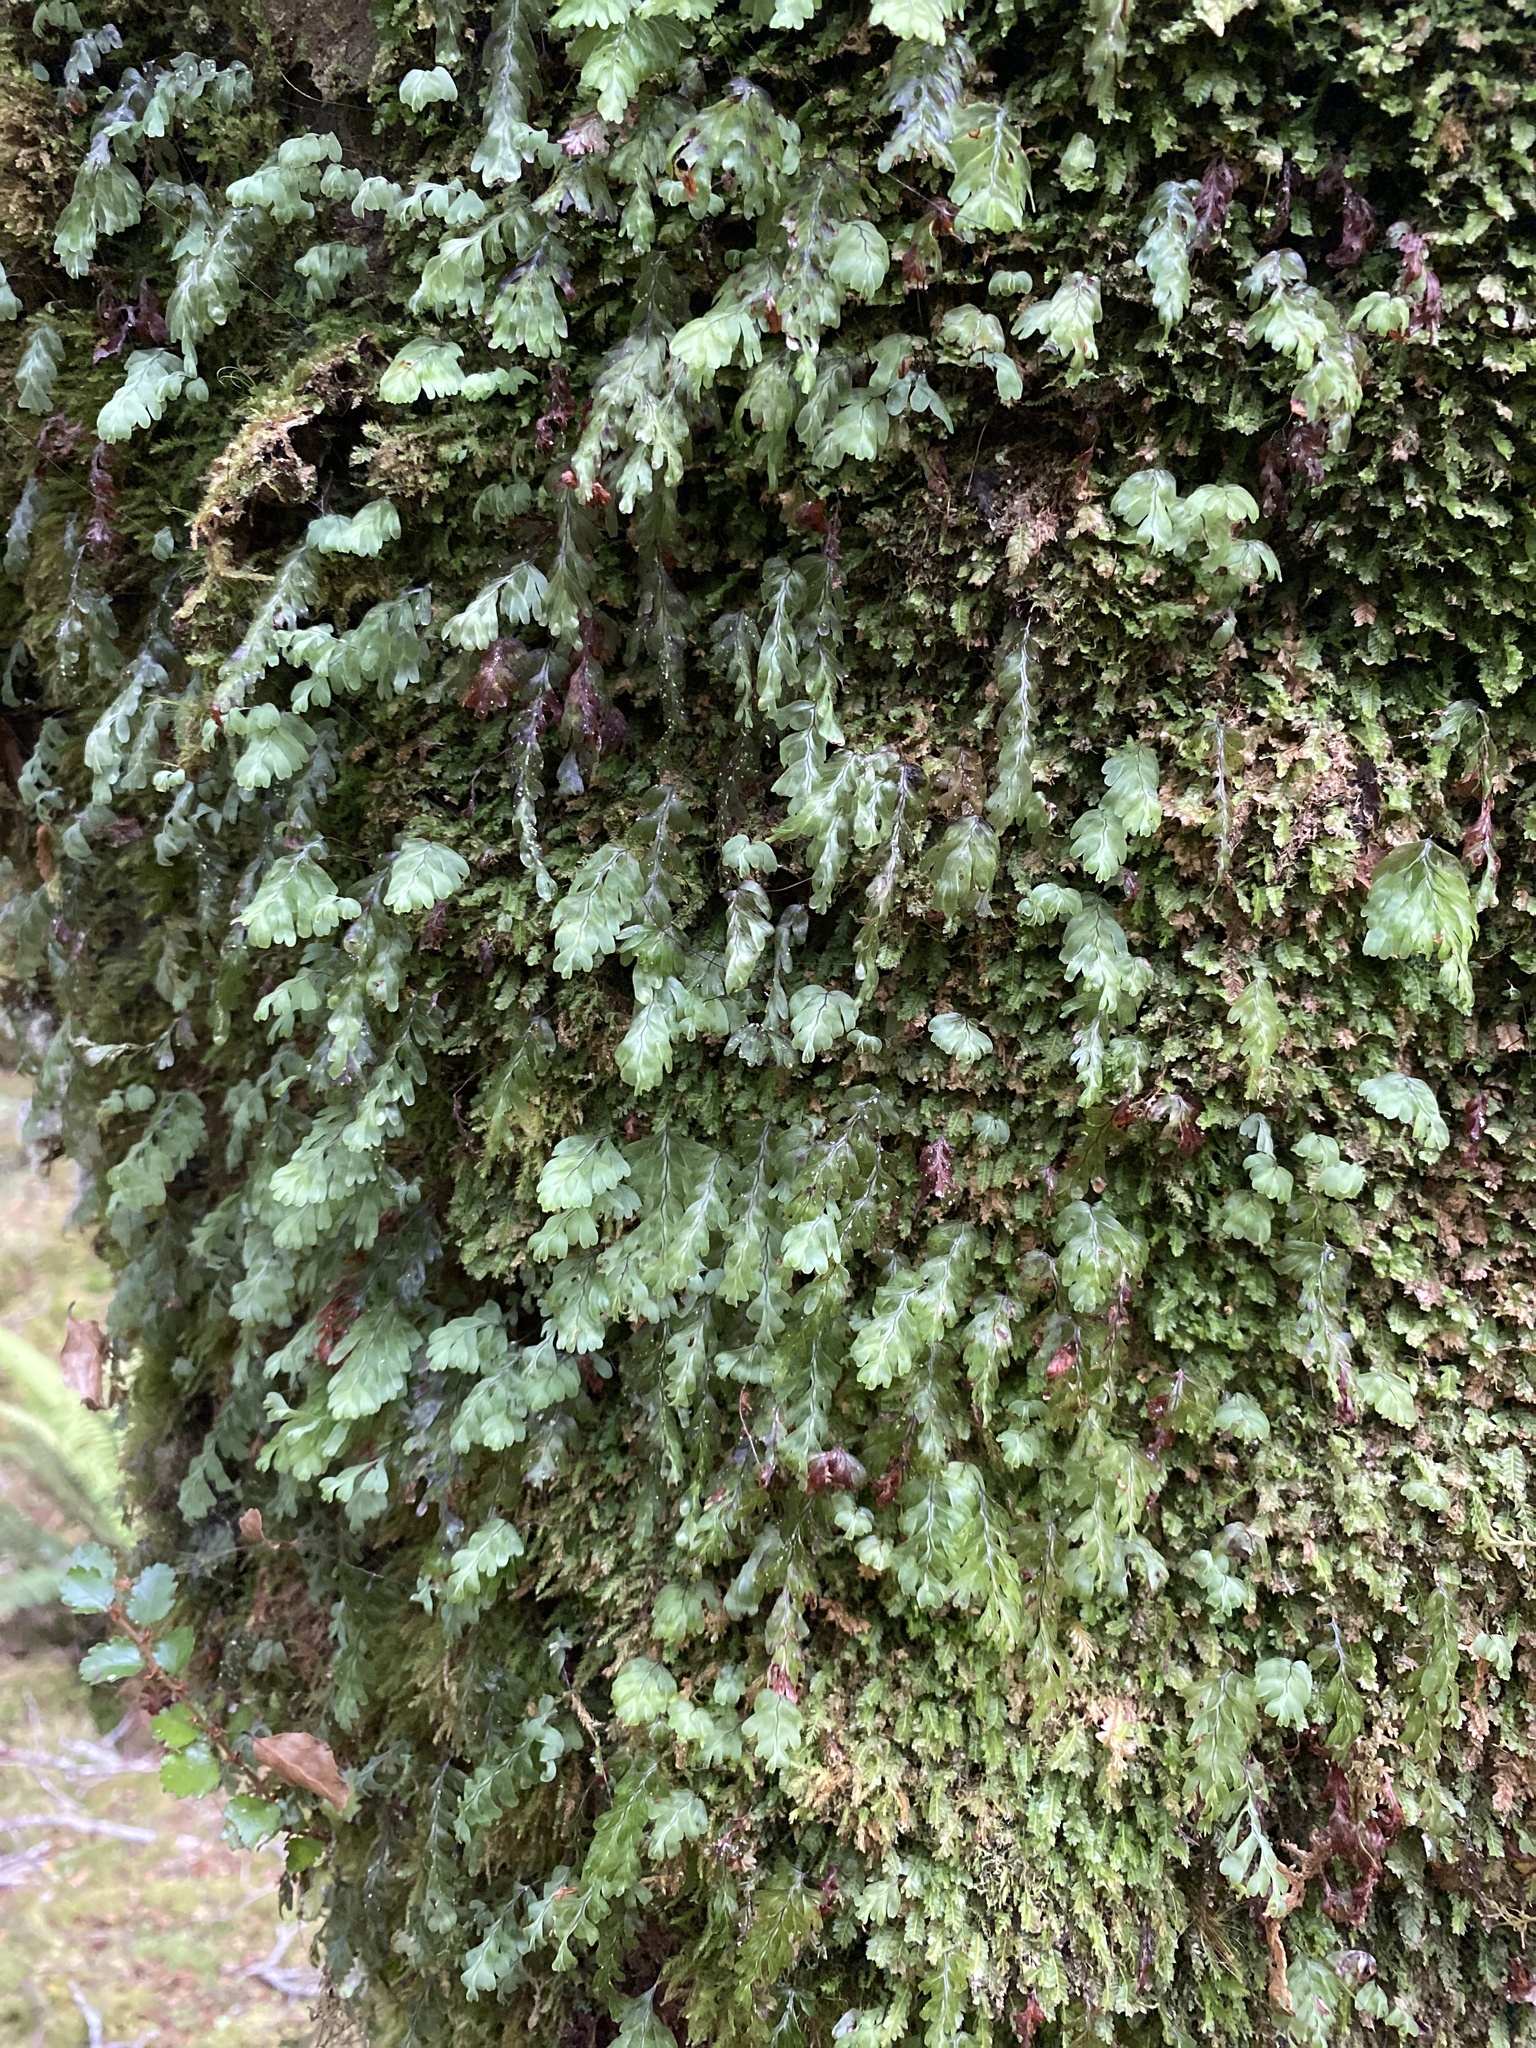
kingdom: Plantae
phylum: Tracheophyta
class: Polypodiopsida
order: Hymenophyllales
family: Hymenophyllaceae
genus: Hymenophyllum
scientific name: Hymenophyllum rarum
